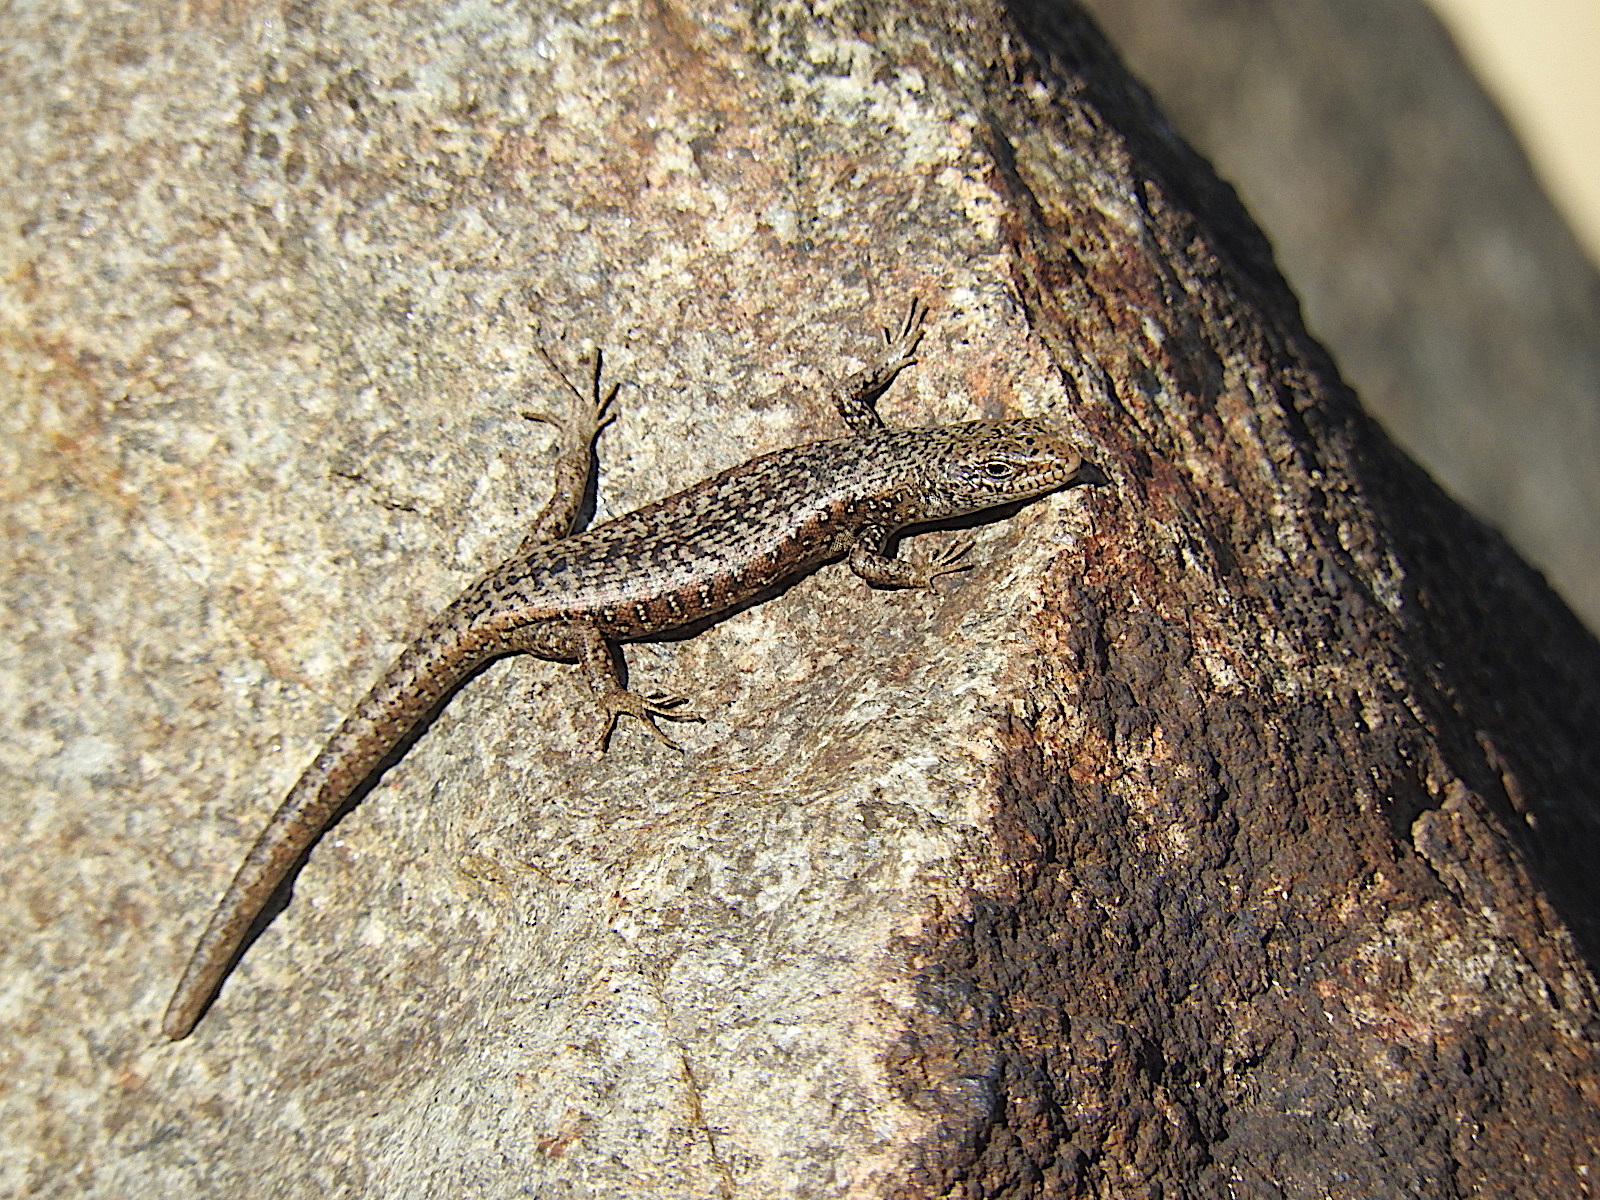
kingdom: Animalia
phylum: Chordata
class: Squamata
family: Scincidae
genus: Carinascincus
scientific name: Carinascincus ocellatus
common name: Ocellated cool-skink
